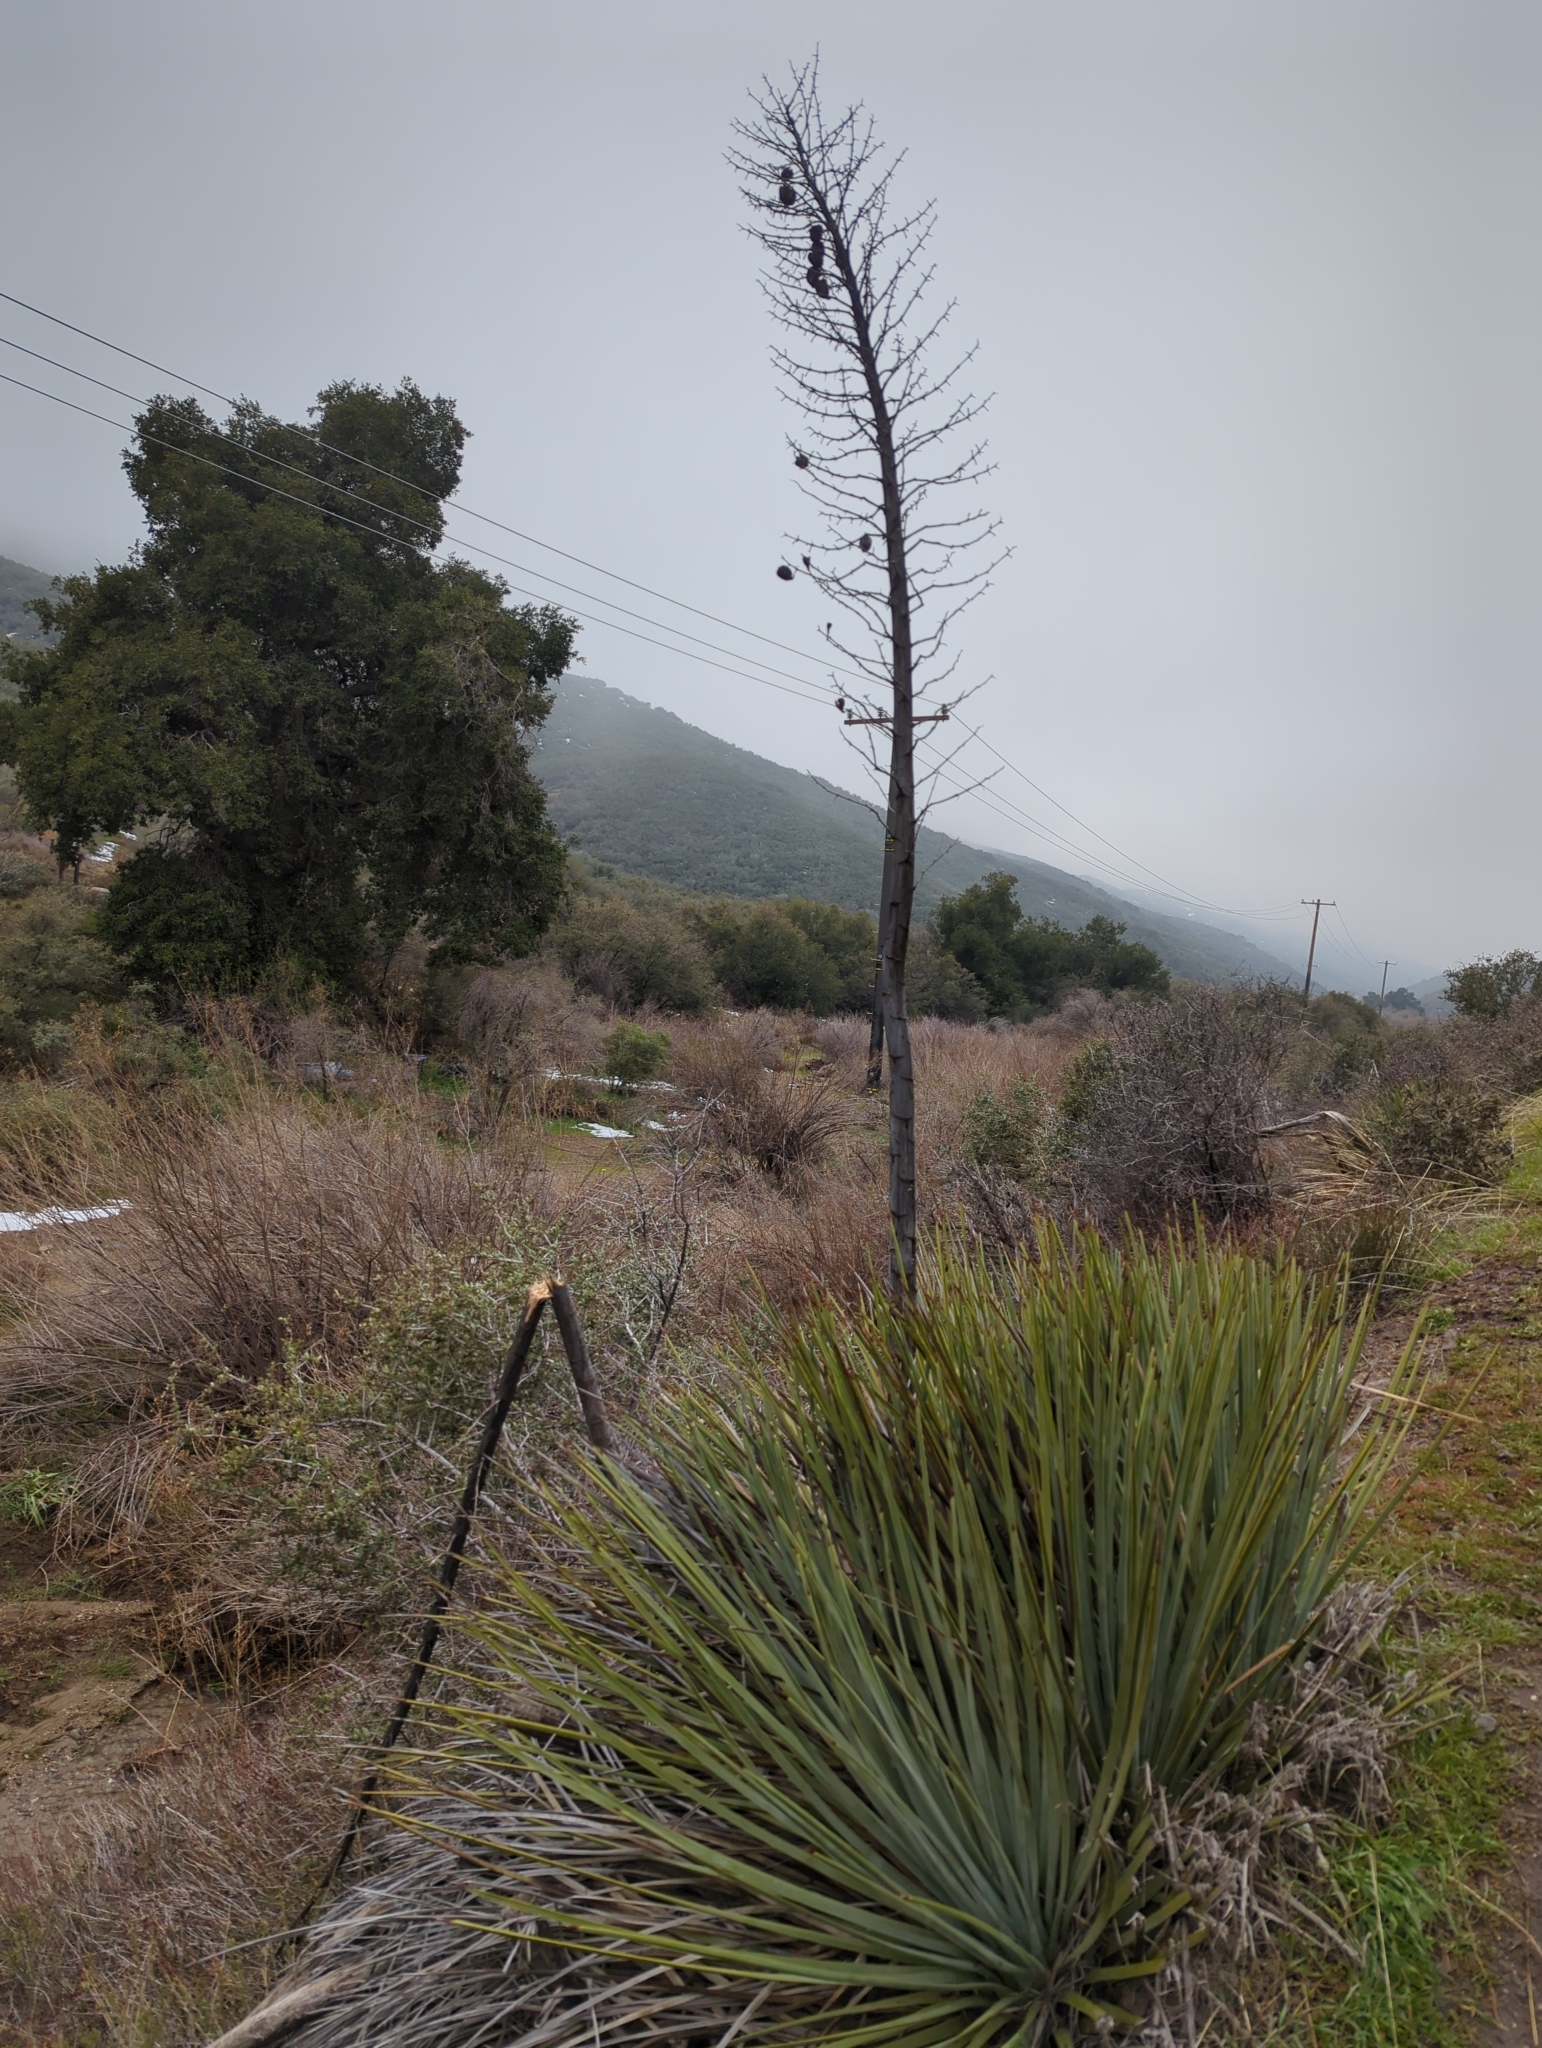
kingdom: Plantae
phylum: Tracheophyta
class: Liliopsida
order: Asparagales
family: Asparagaceae
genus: Hesperoyucca
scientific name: Hesperoyucca whipplei
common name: Our lord's-candle
